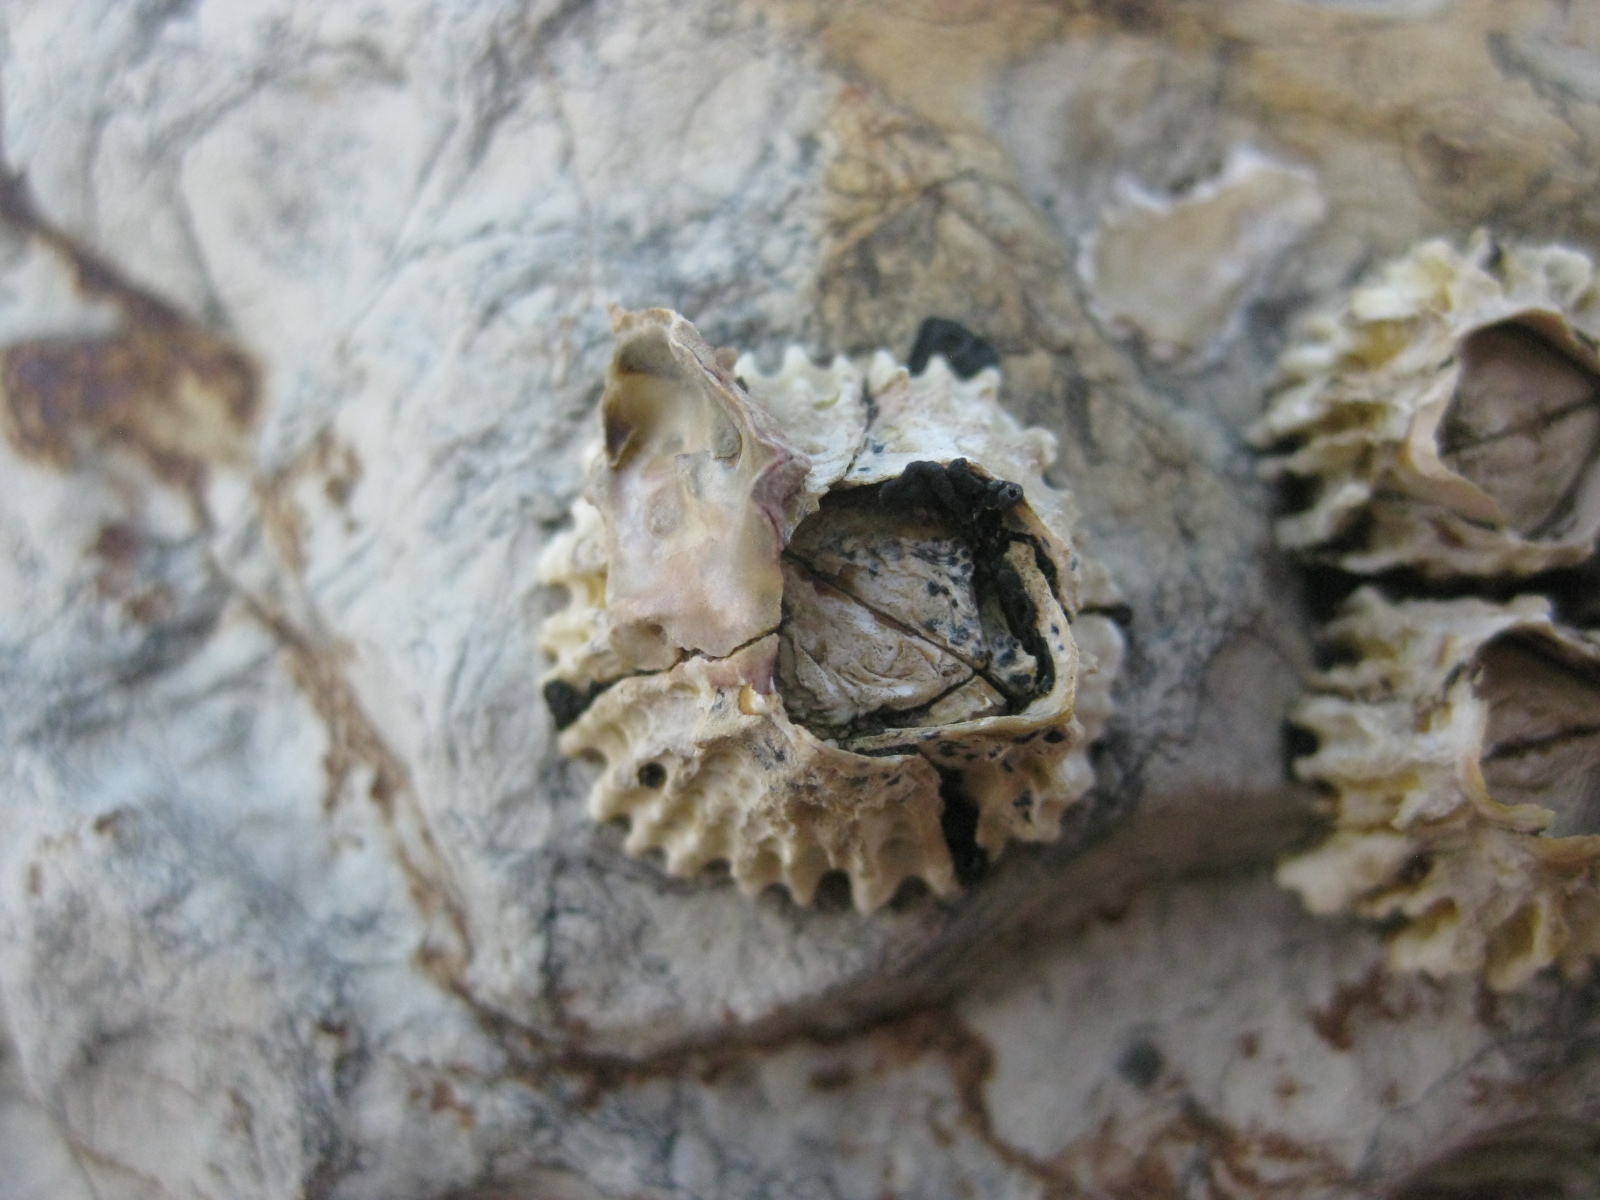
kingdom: Animalia
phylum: Arthropoda
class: Maxillopoda
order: Sessilia
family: Tetraclitidae
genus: Epopella
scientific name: Epopella plicata
